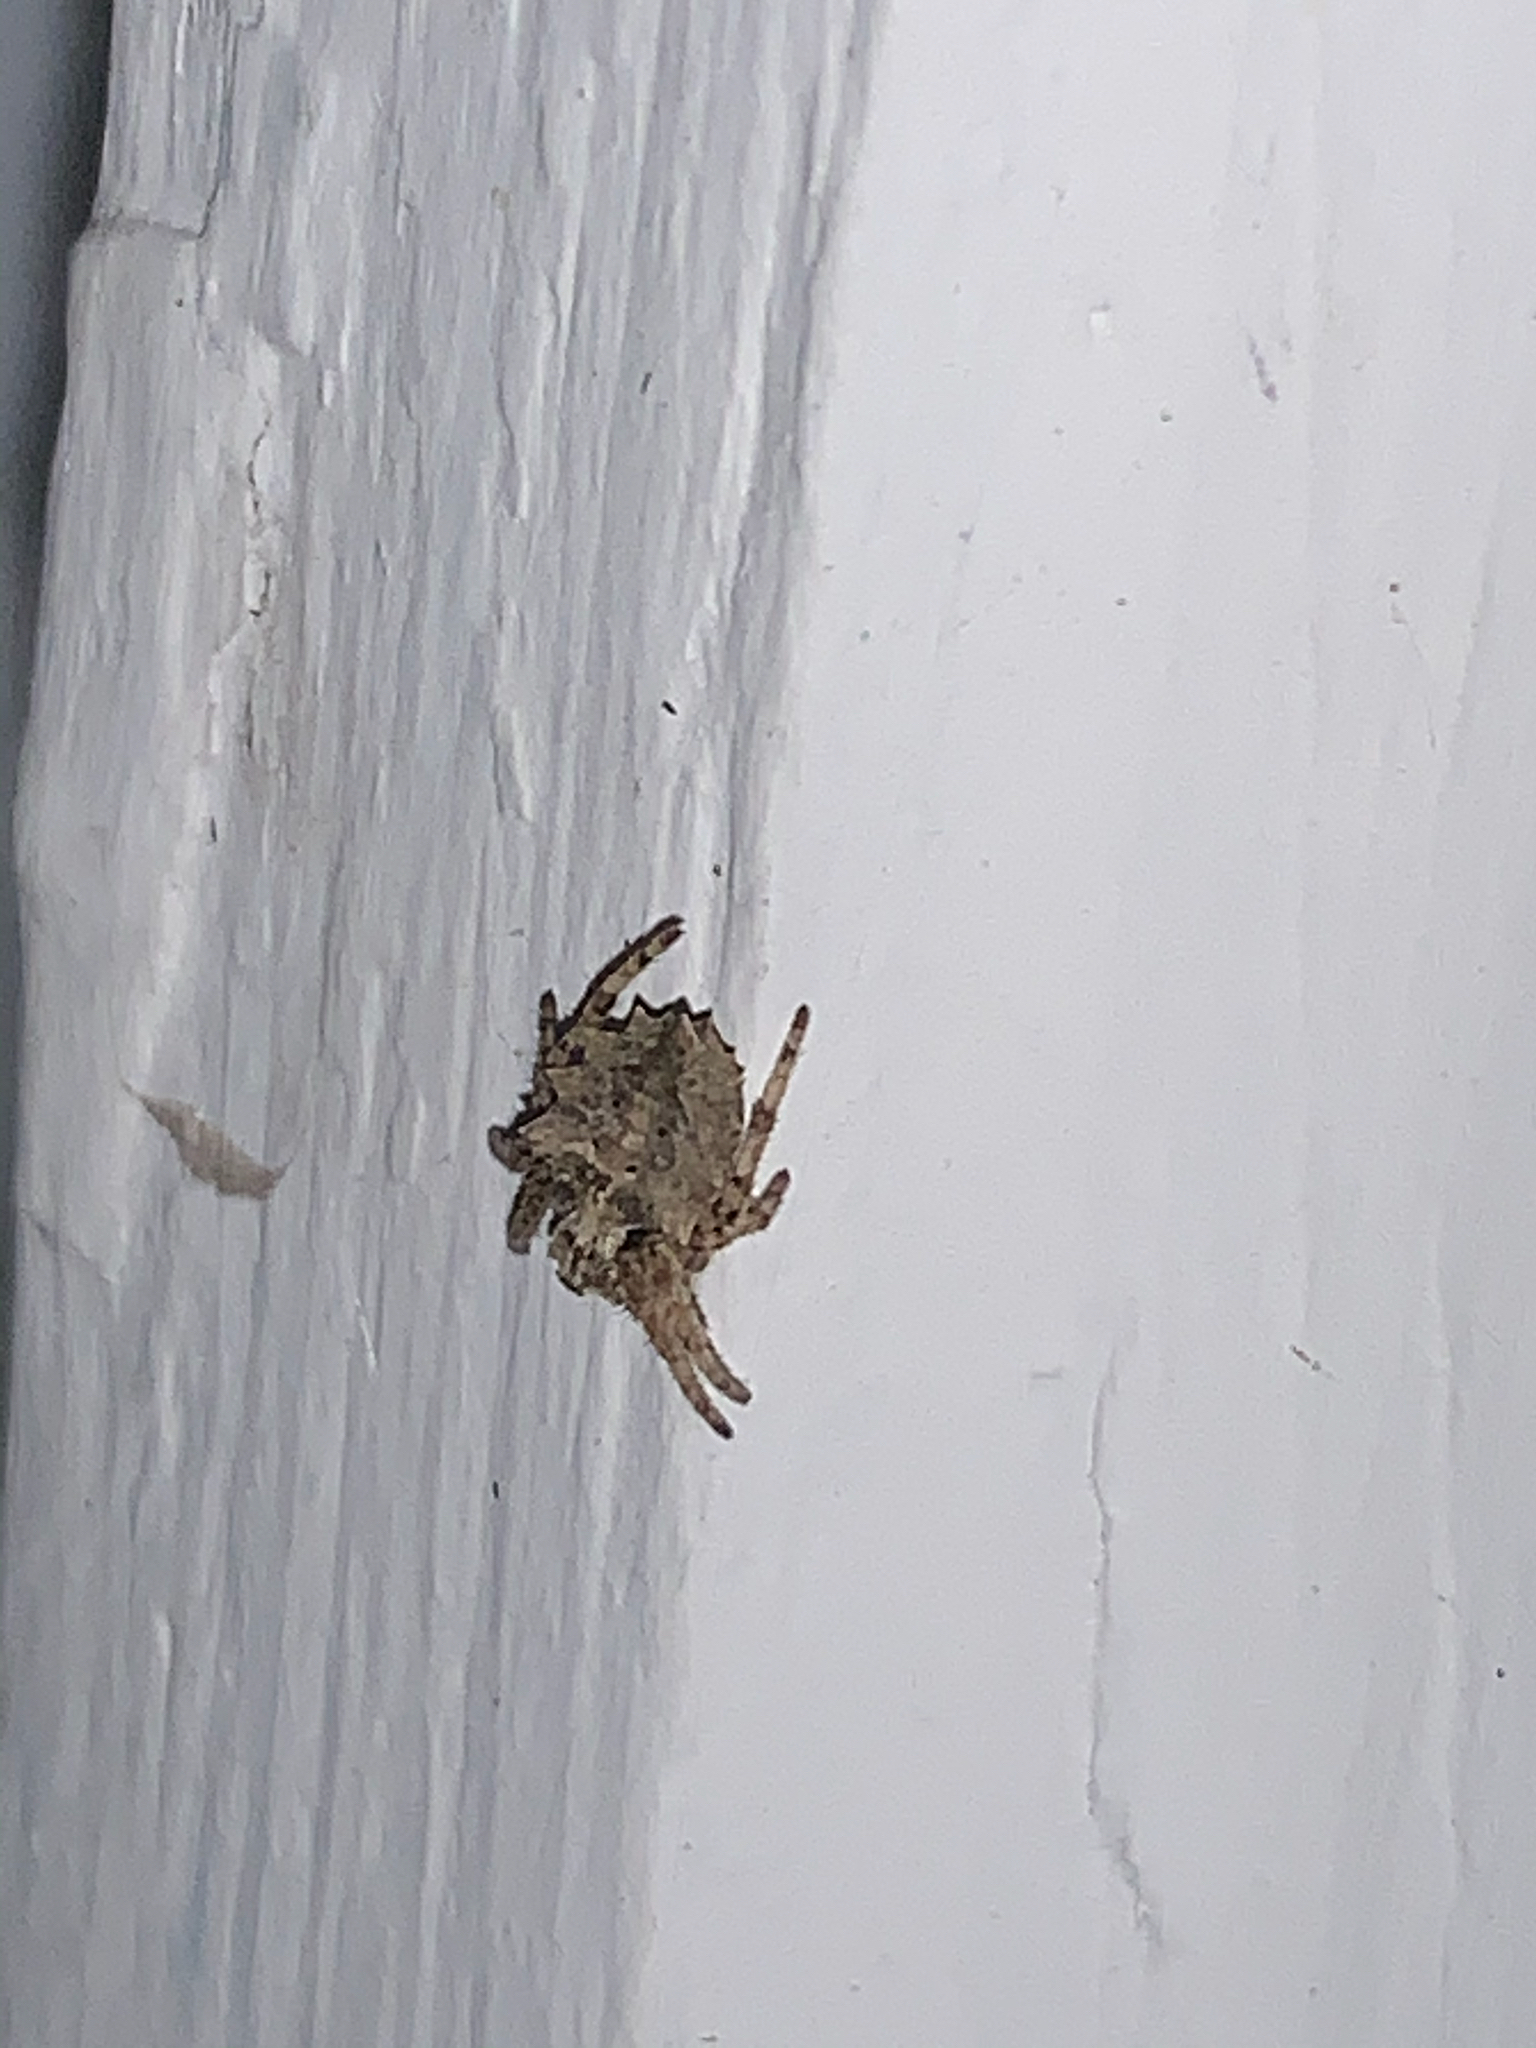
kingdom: Animalia
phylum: Arthropoda
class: Arachnida
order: Araneae
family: Araneidae
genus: Acanthepeira
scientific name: Acanthepeira stellata
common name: Starbellied orbweaver
